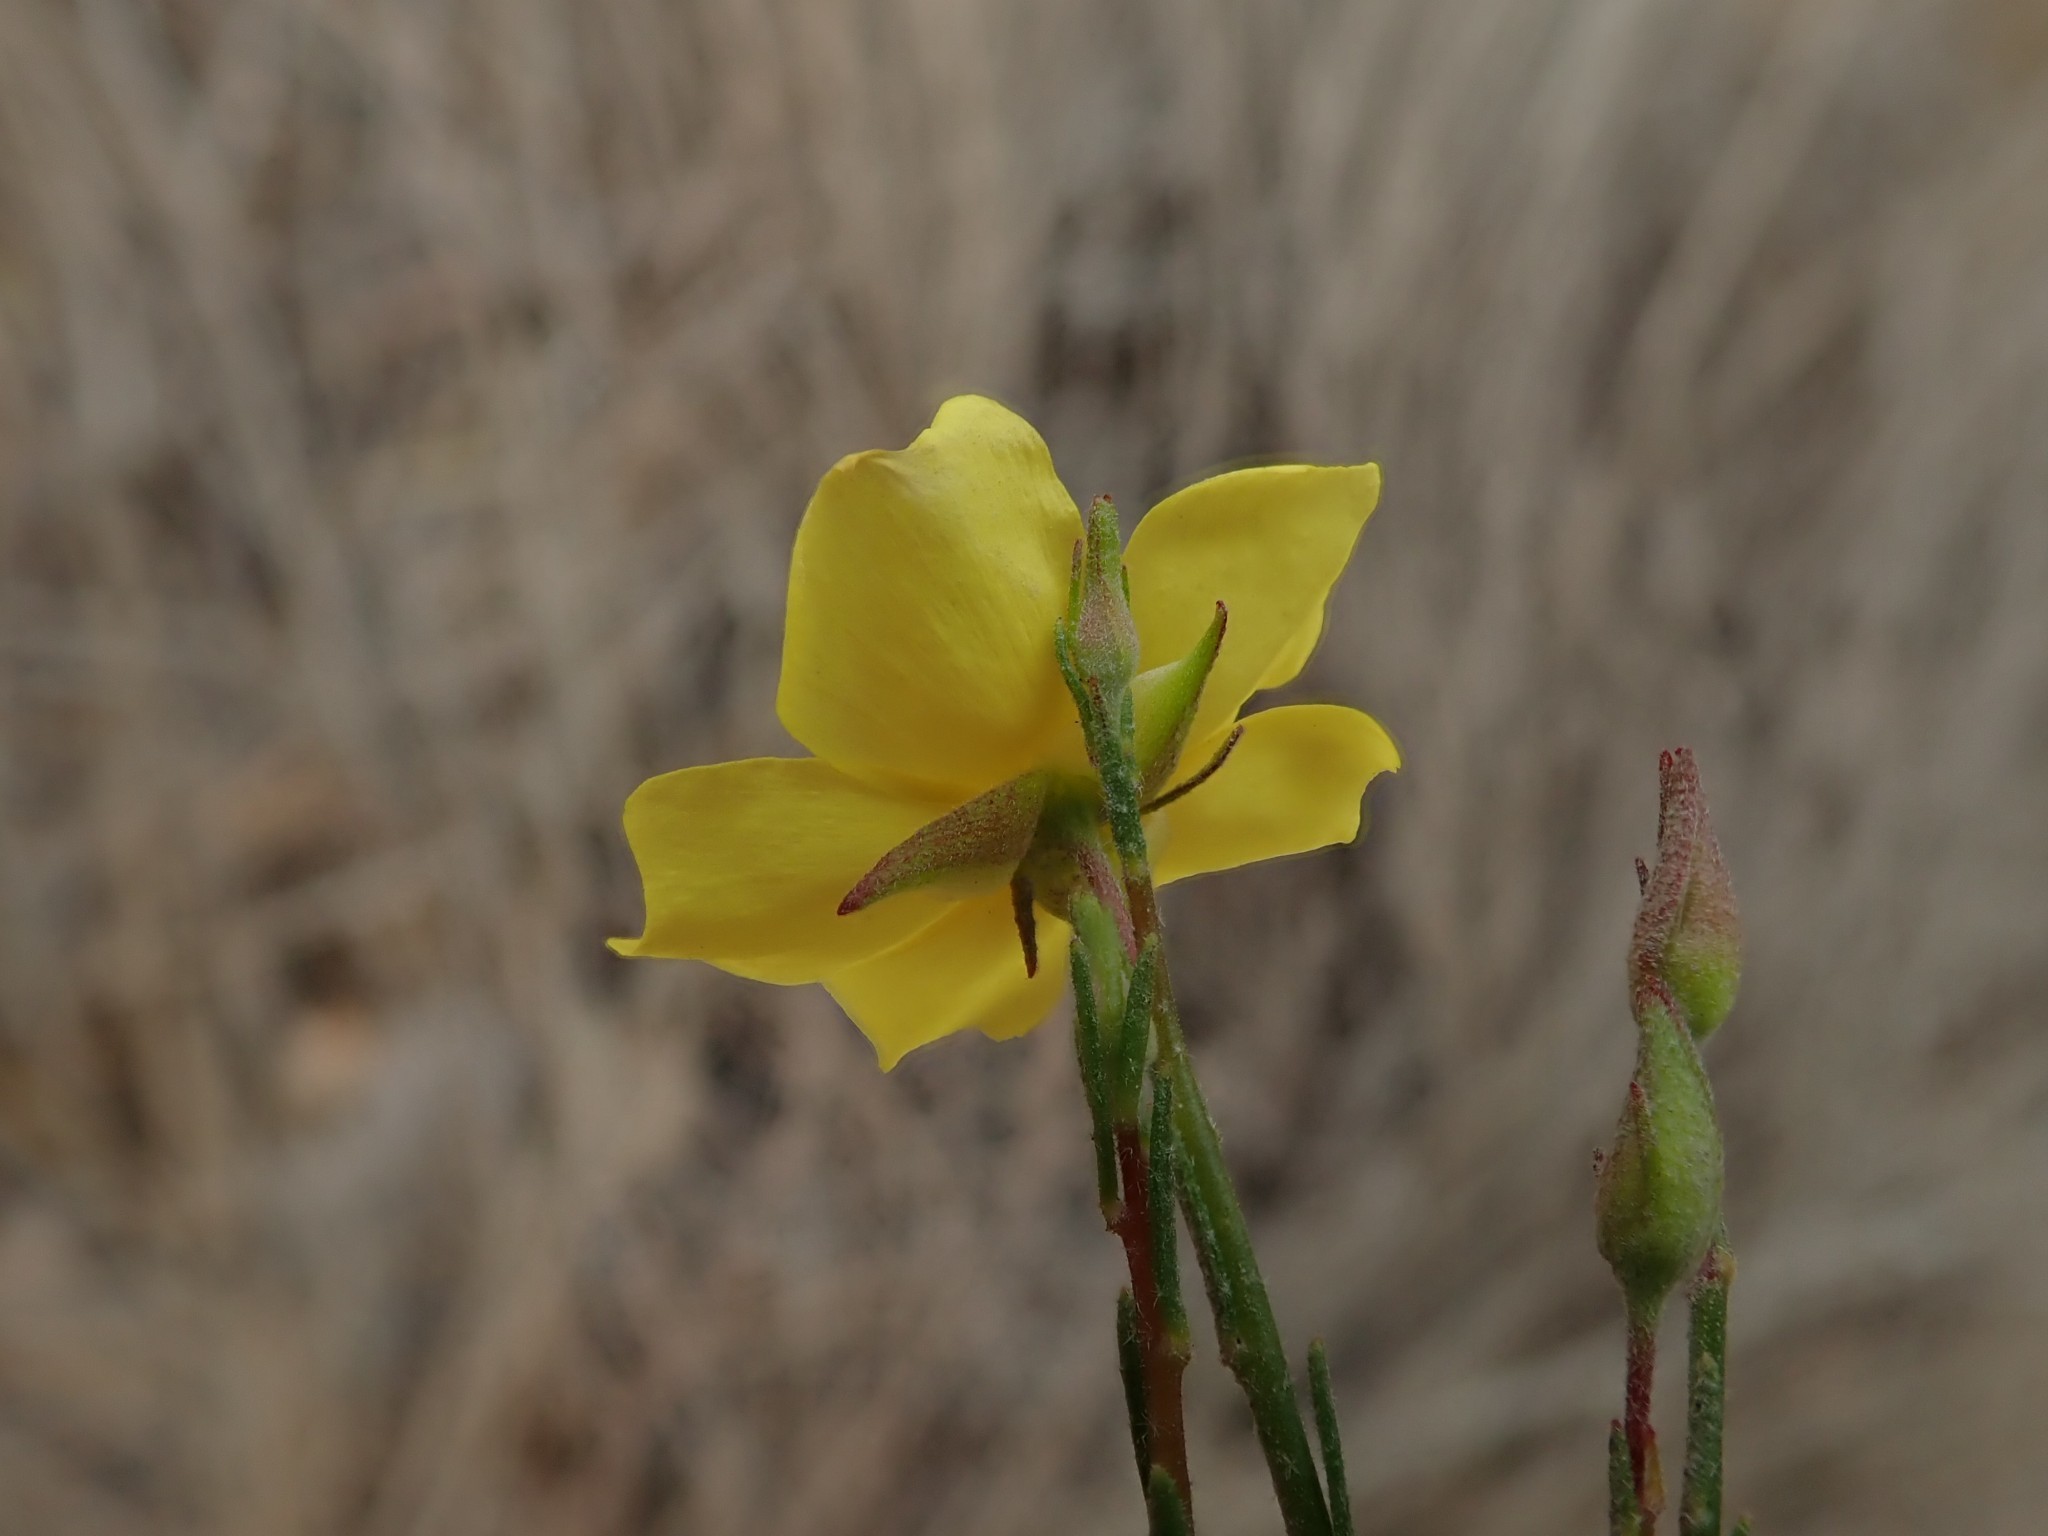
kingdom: Plantae
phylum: Tracheophyta
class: Magnoliopsida
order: Malvales
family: Cistaceae
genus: Crocanthemum
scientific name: Crocanthemum scoparium
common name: Broom-rose
